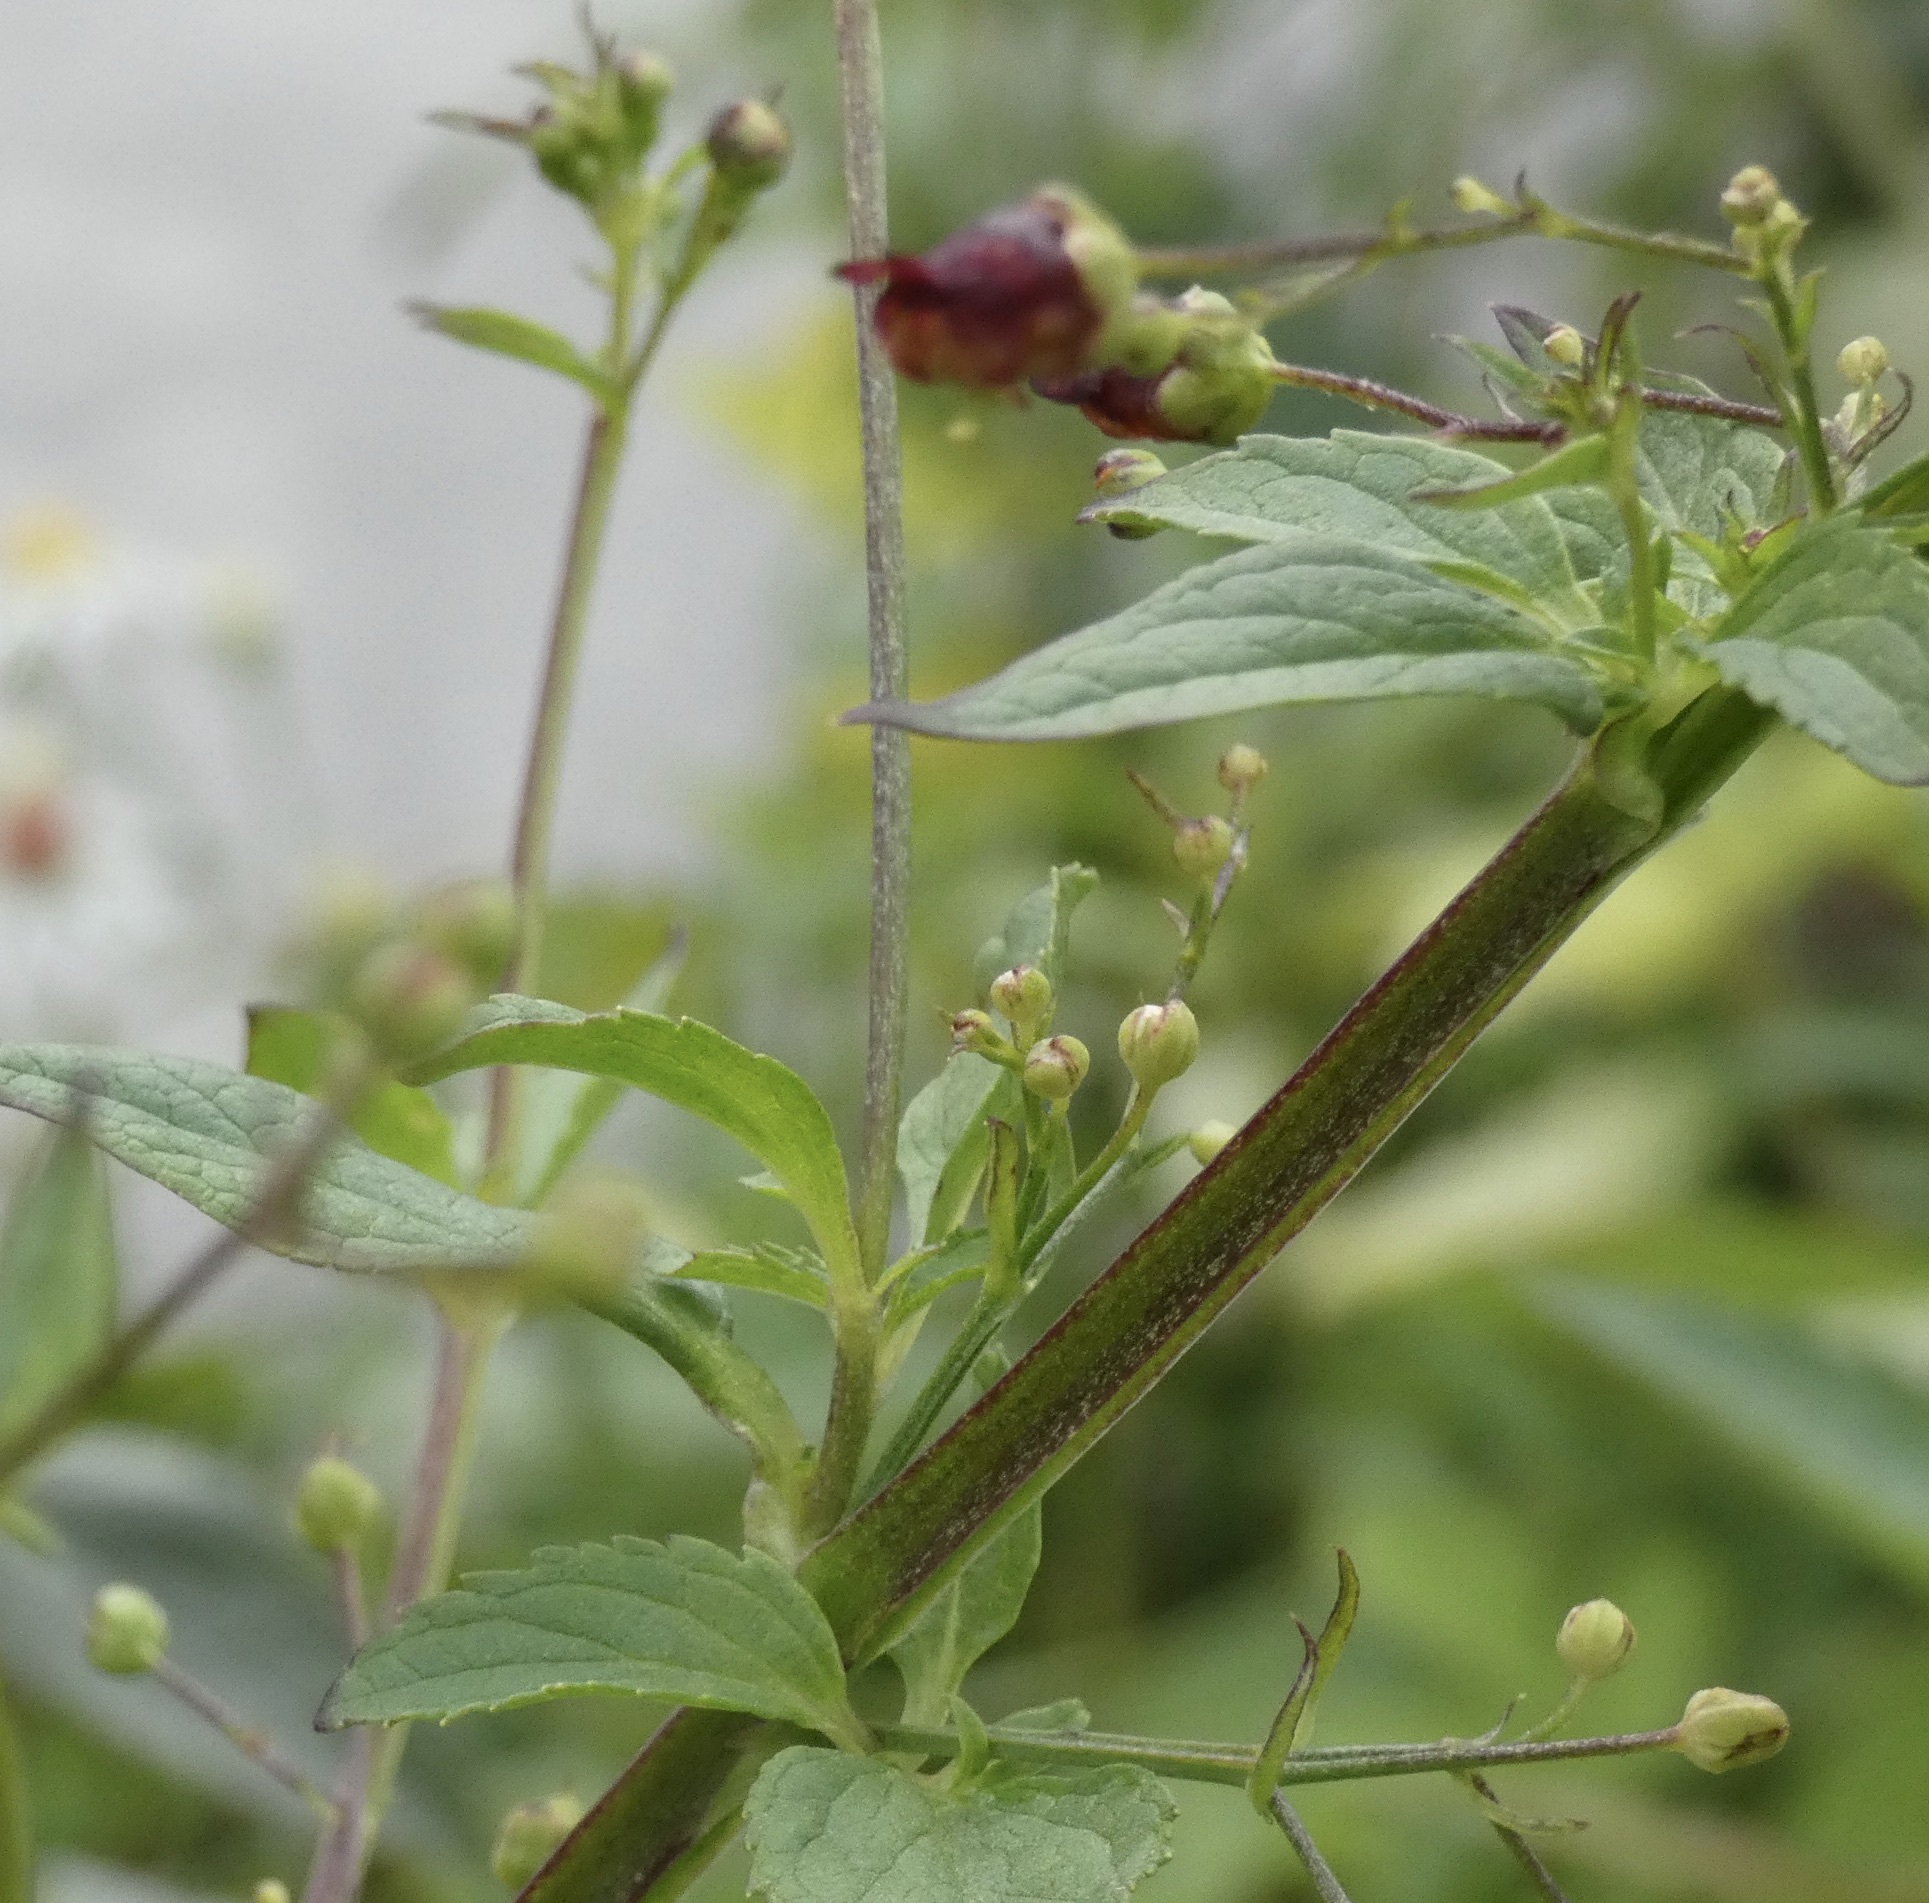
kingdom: Plantae
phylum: Tracheophyta
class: Magnoliopsida
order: Lamiales
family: Scrophulariaceae
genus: Scrophularia
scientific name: Scrophularia nodosa
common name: Common figwort
